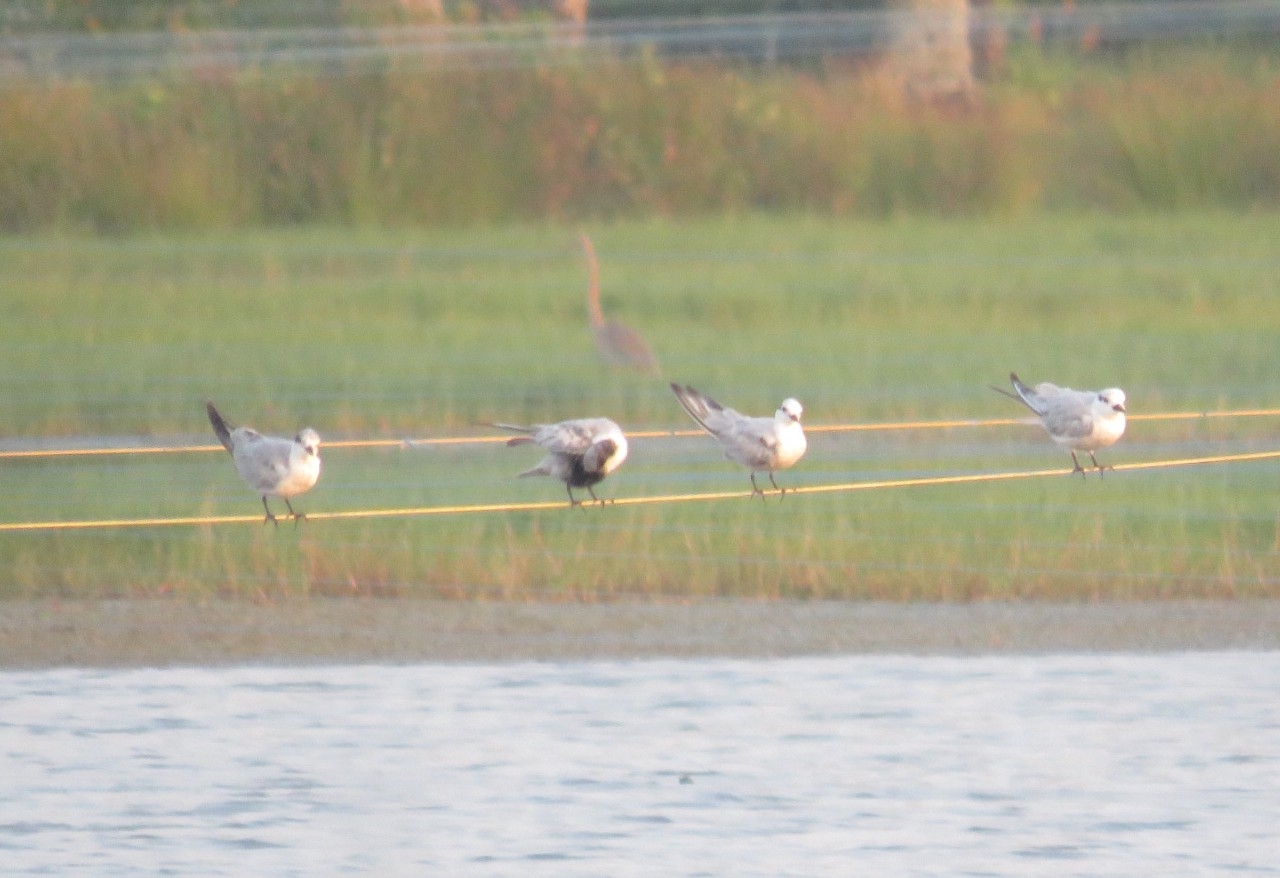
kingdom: Animalia
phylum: Chordata
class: Aves
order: Charadriiformes
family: Laridae
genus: Chlidonias
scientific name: Chlidonias hybrida
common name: Whiskered tern
